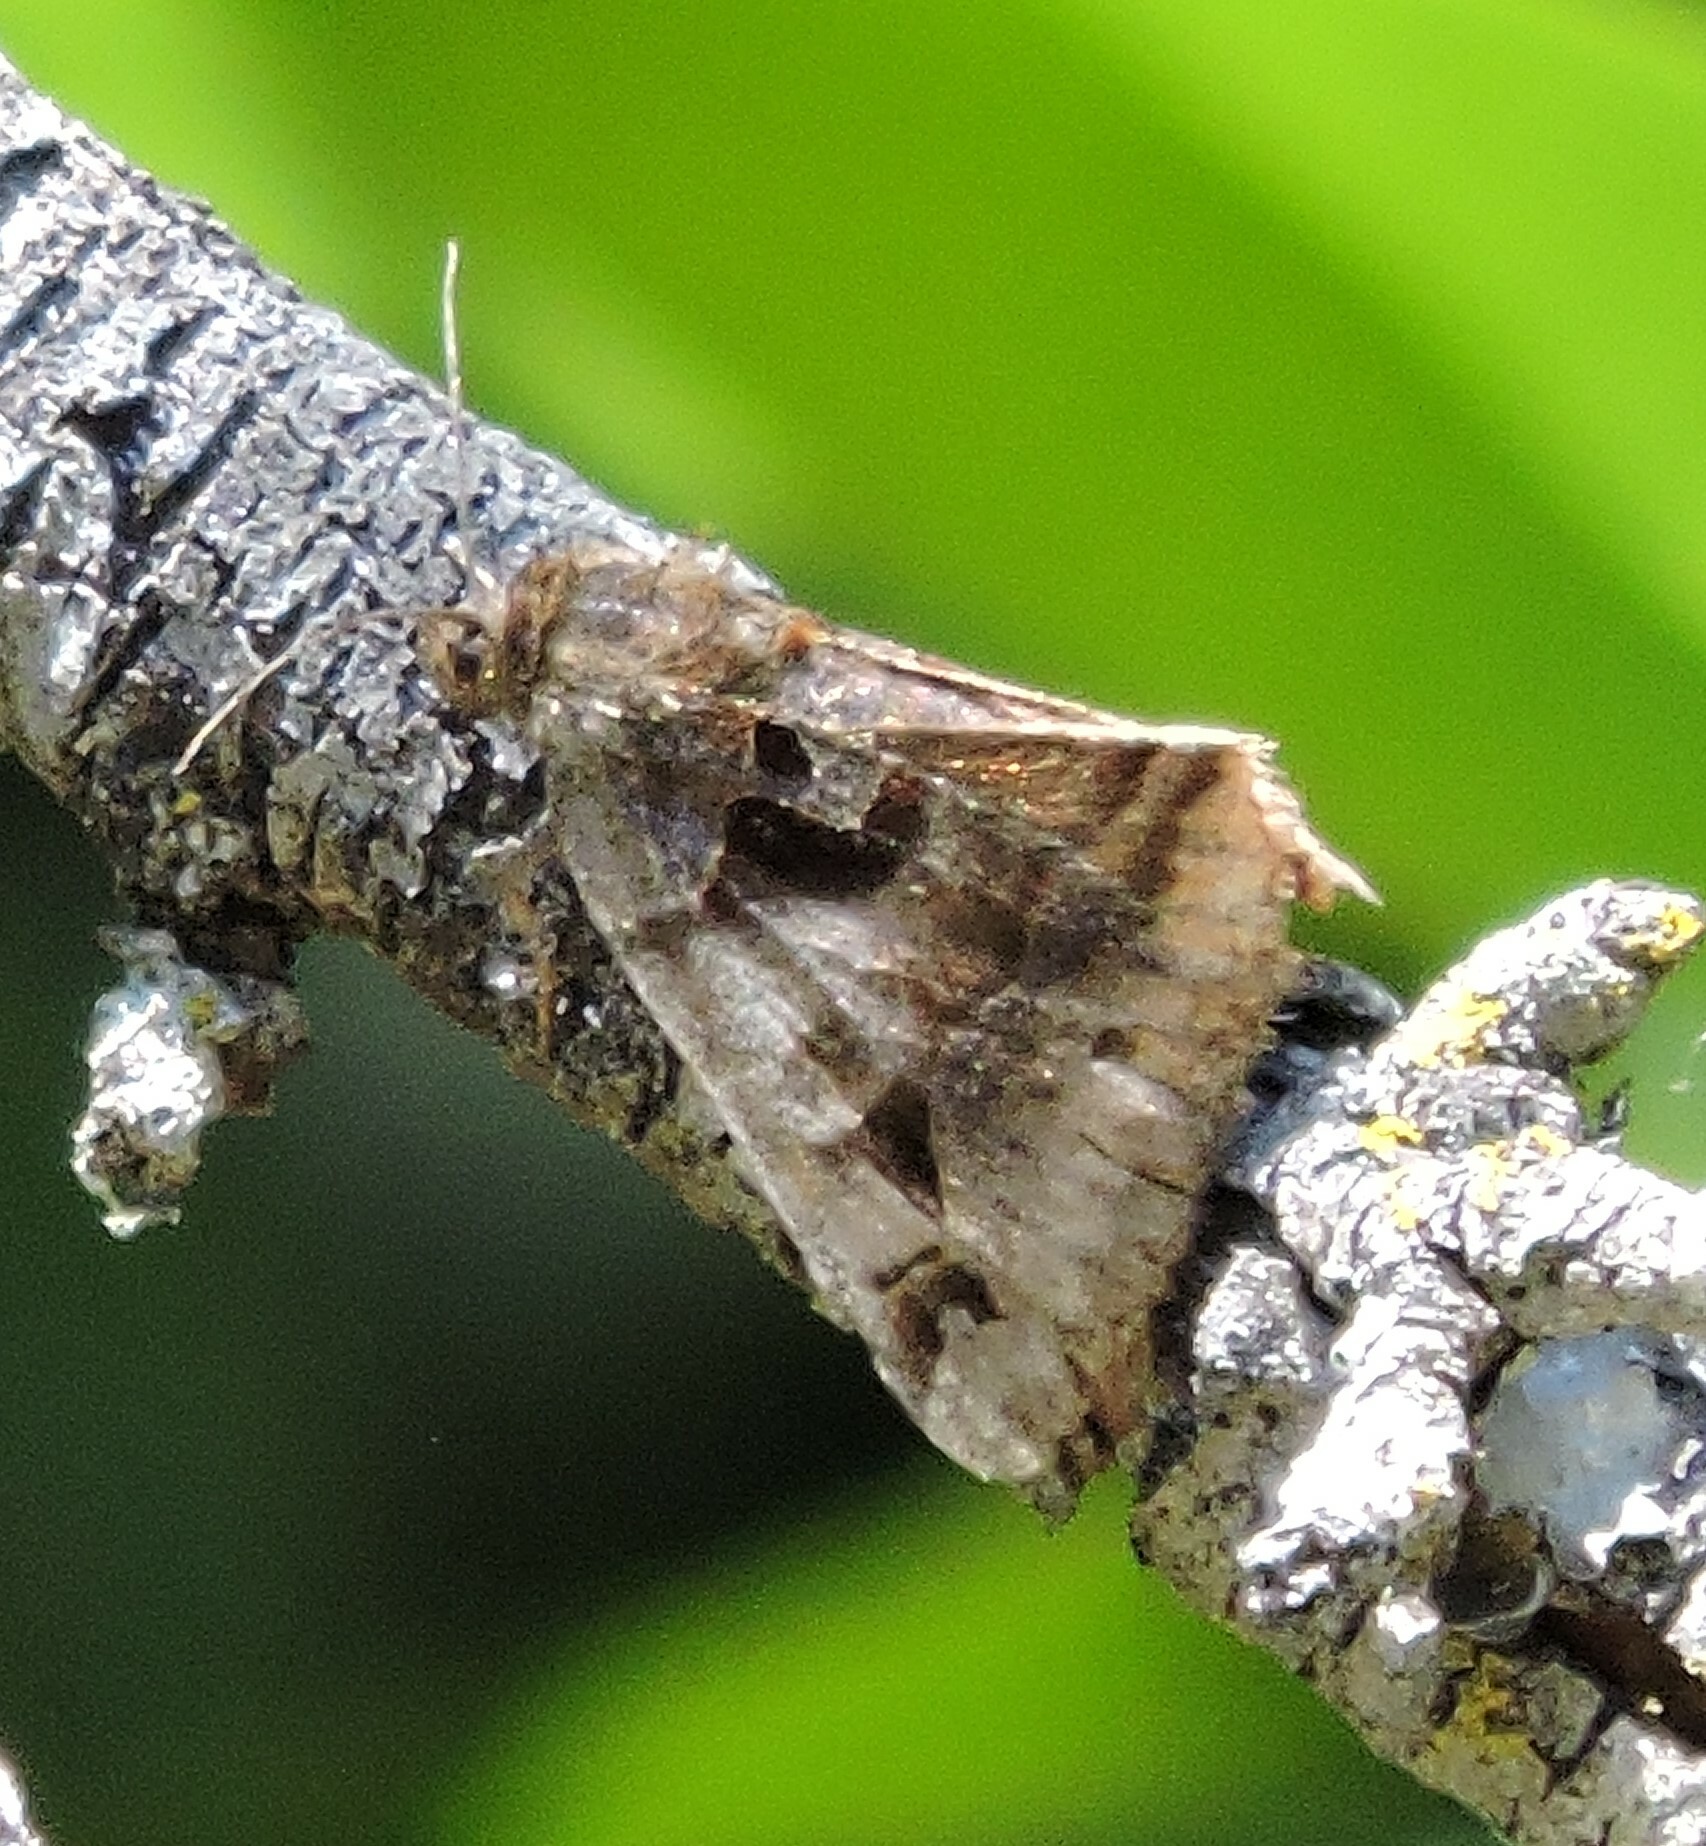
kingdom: Animalia
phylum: Arthropoda
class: Insecta
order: Lepidoptera
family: Erebidae
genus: Euclidia
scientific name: Euclidia ardita
